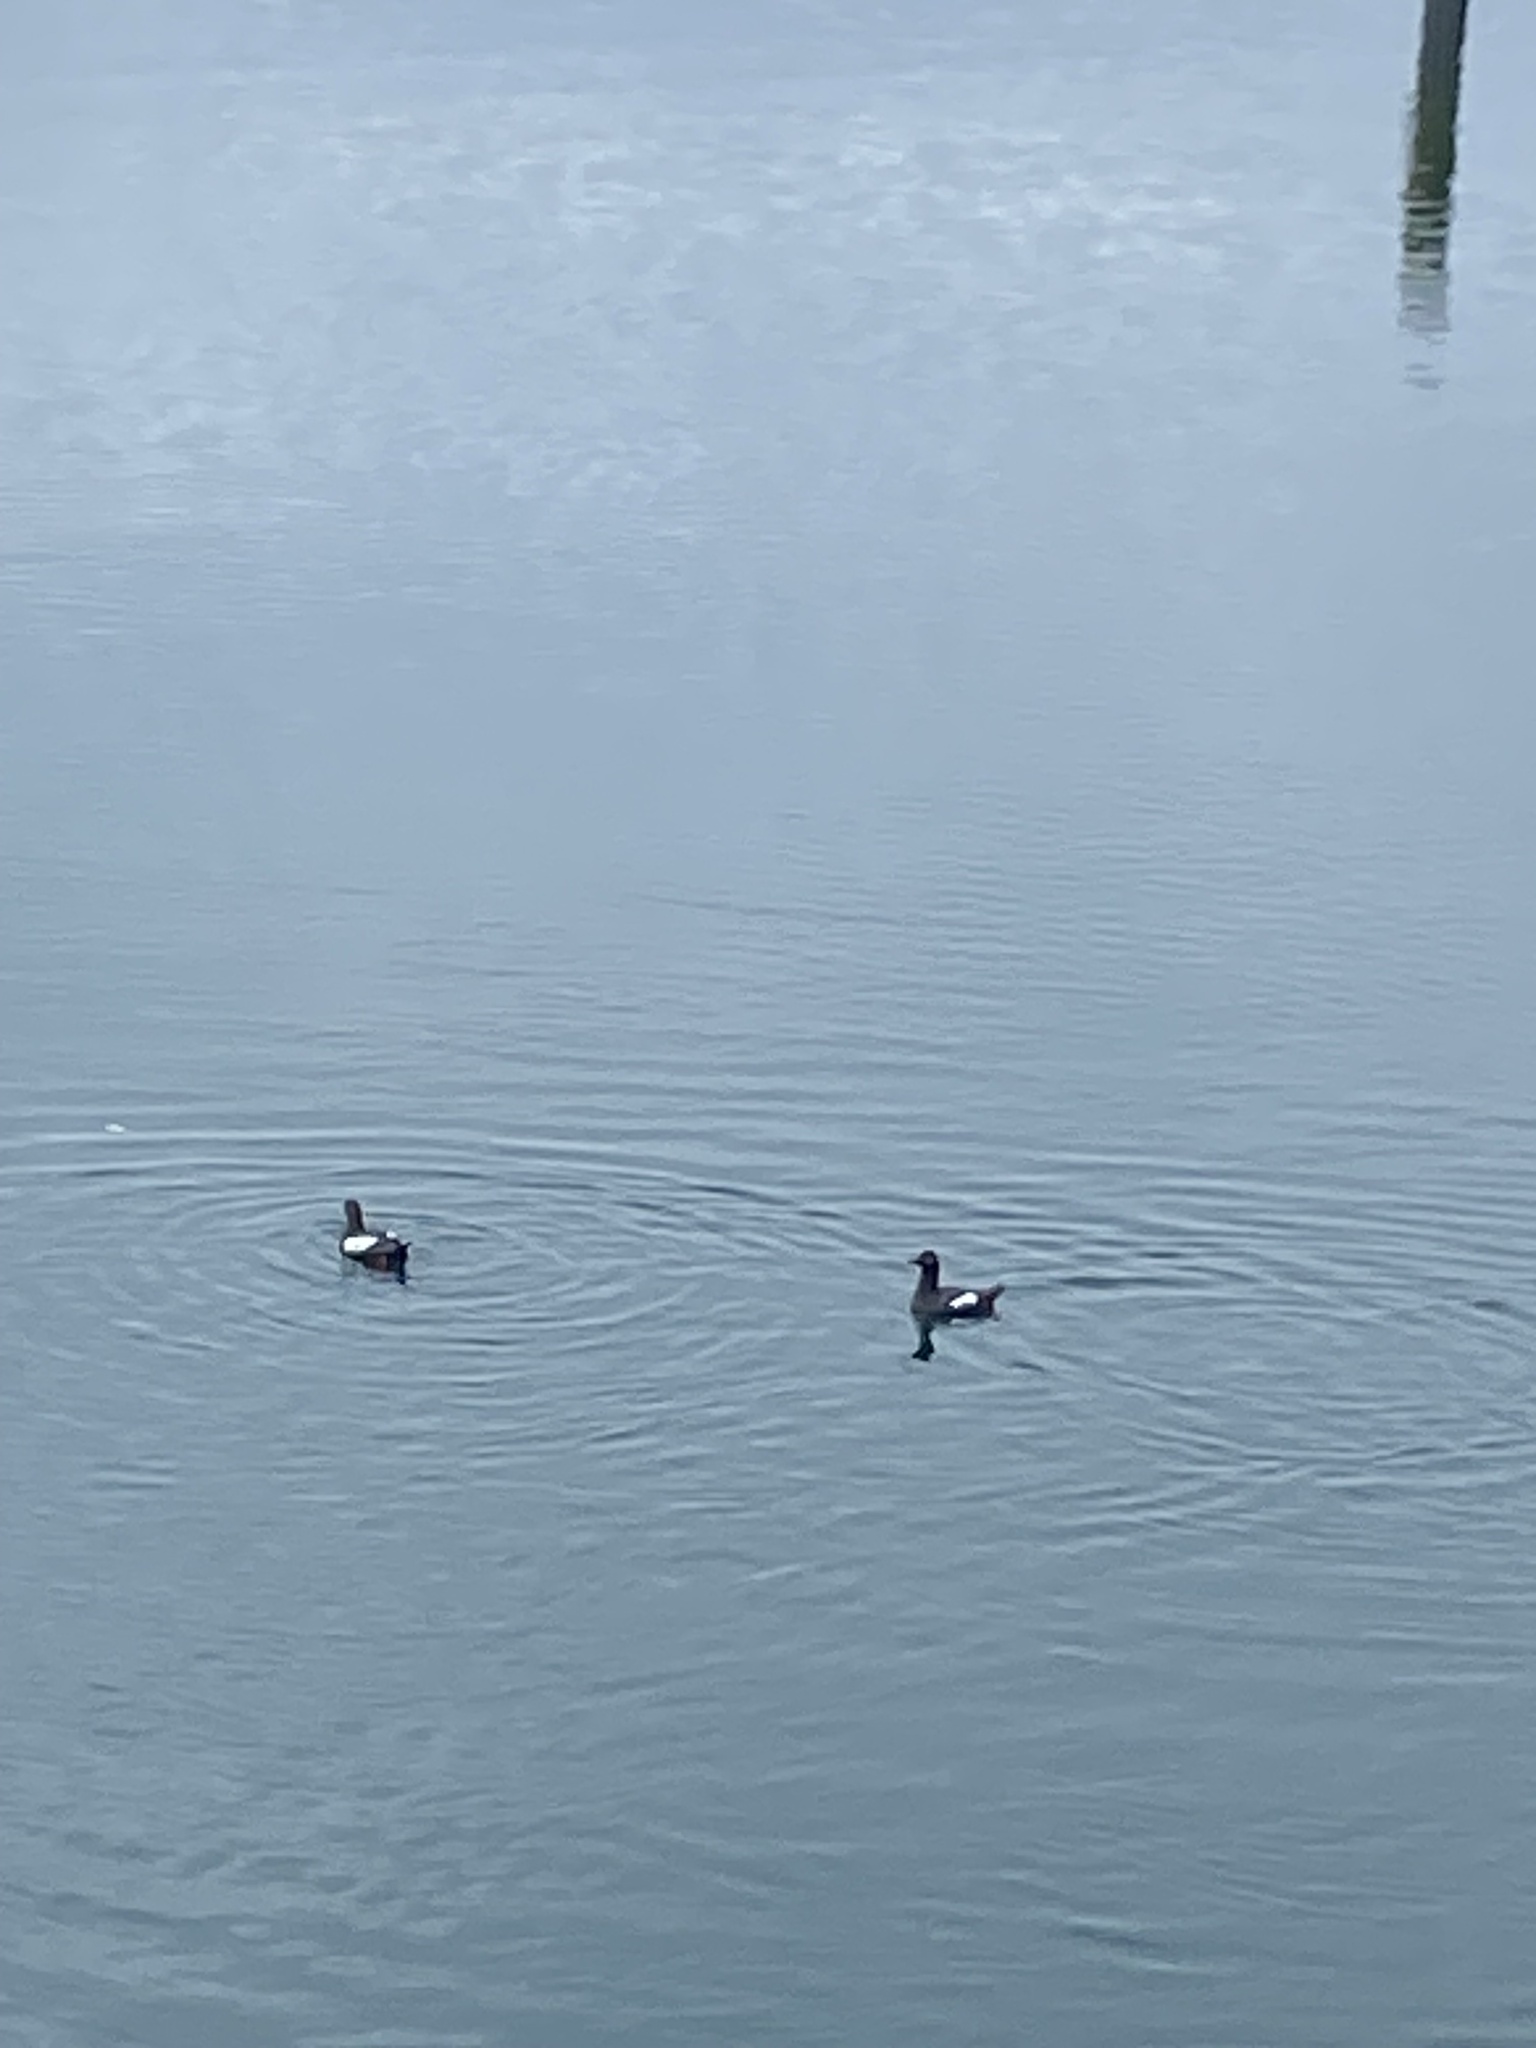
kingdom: Animalia
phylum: Chordata
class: Aves
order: Charadriiformes
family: Alcidae
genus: Cepphus
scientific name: Cepphus columba
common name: Pigeon guillemot
